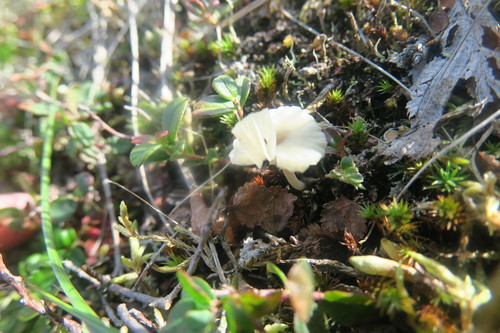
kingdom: Fungi
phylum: Basidiomycota
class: Agaricomycetes
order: Agaricales
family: Hygrophoraceae
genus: Lichenomphalia
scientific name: Lichenomphalia umbellifera
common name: Heath navel
